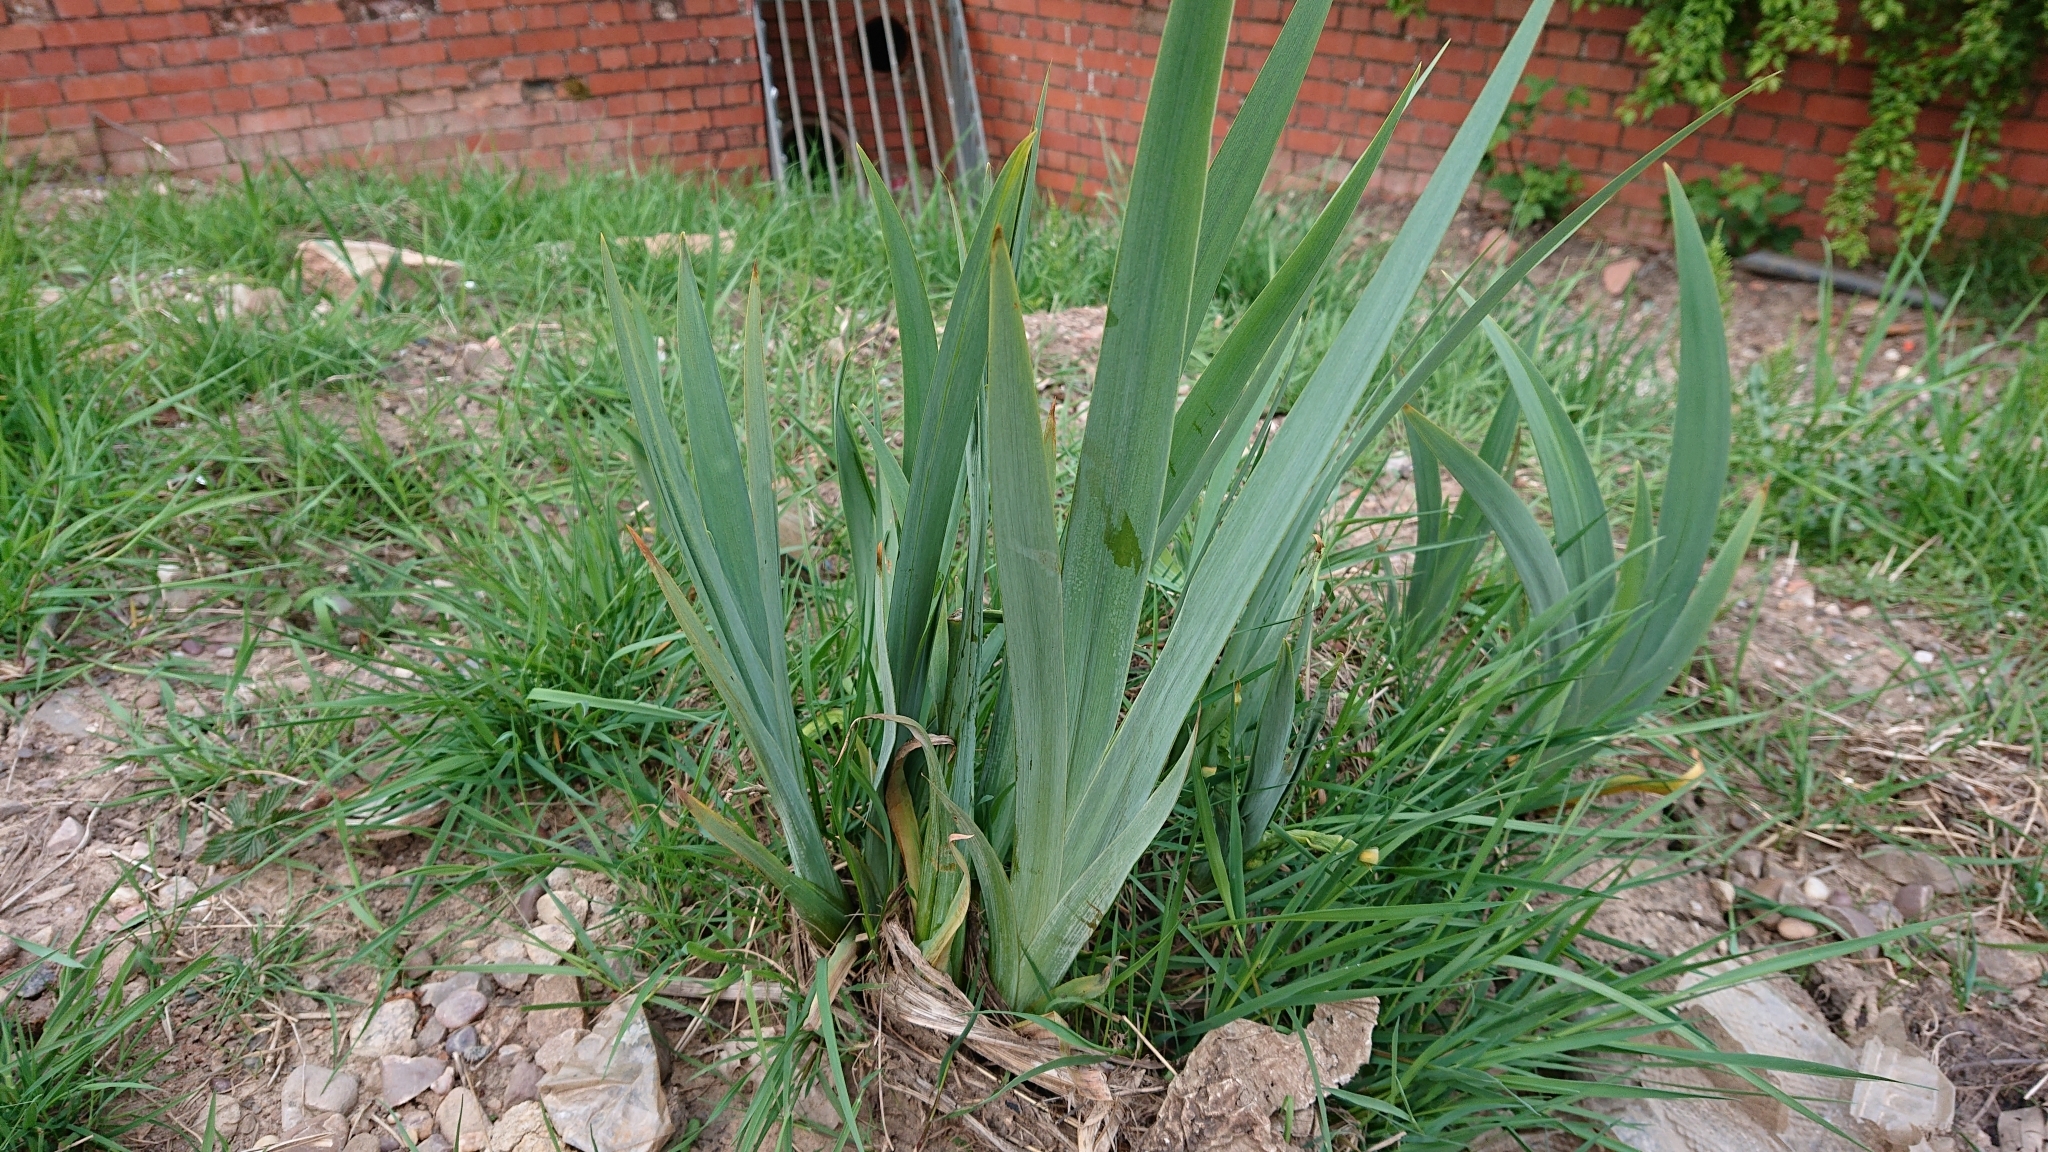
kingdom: Plantae
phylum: Tracheophyta
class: Liliopsida
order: Asparagales
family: Iridaceae
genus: Iris
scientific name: Iris pseudacorus
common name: Yellow flag
